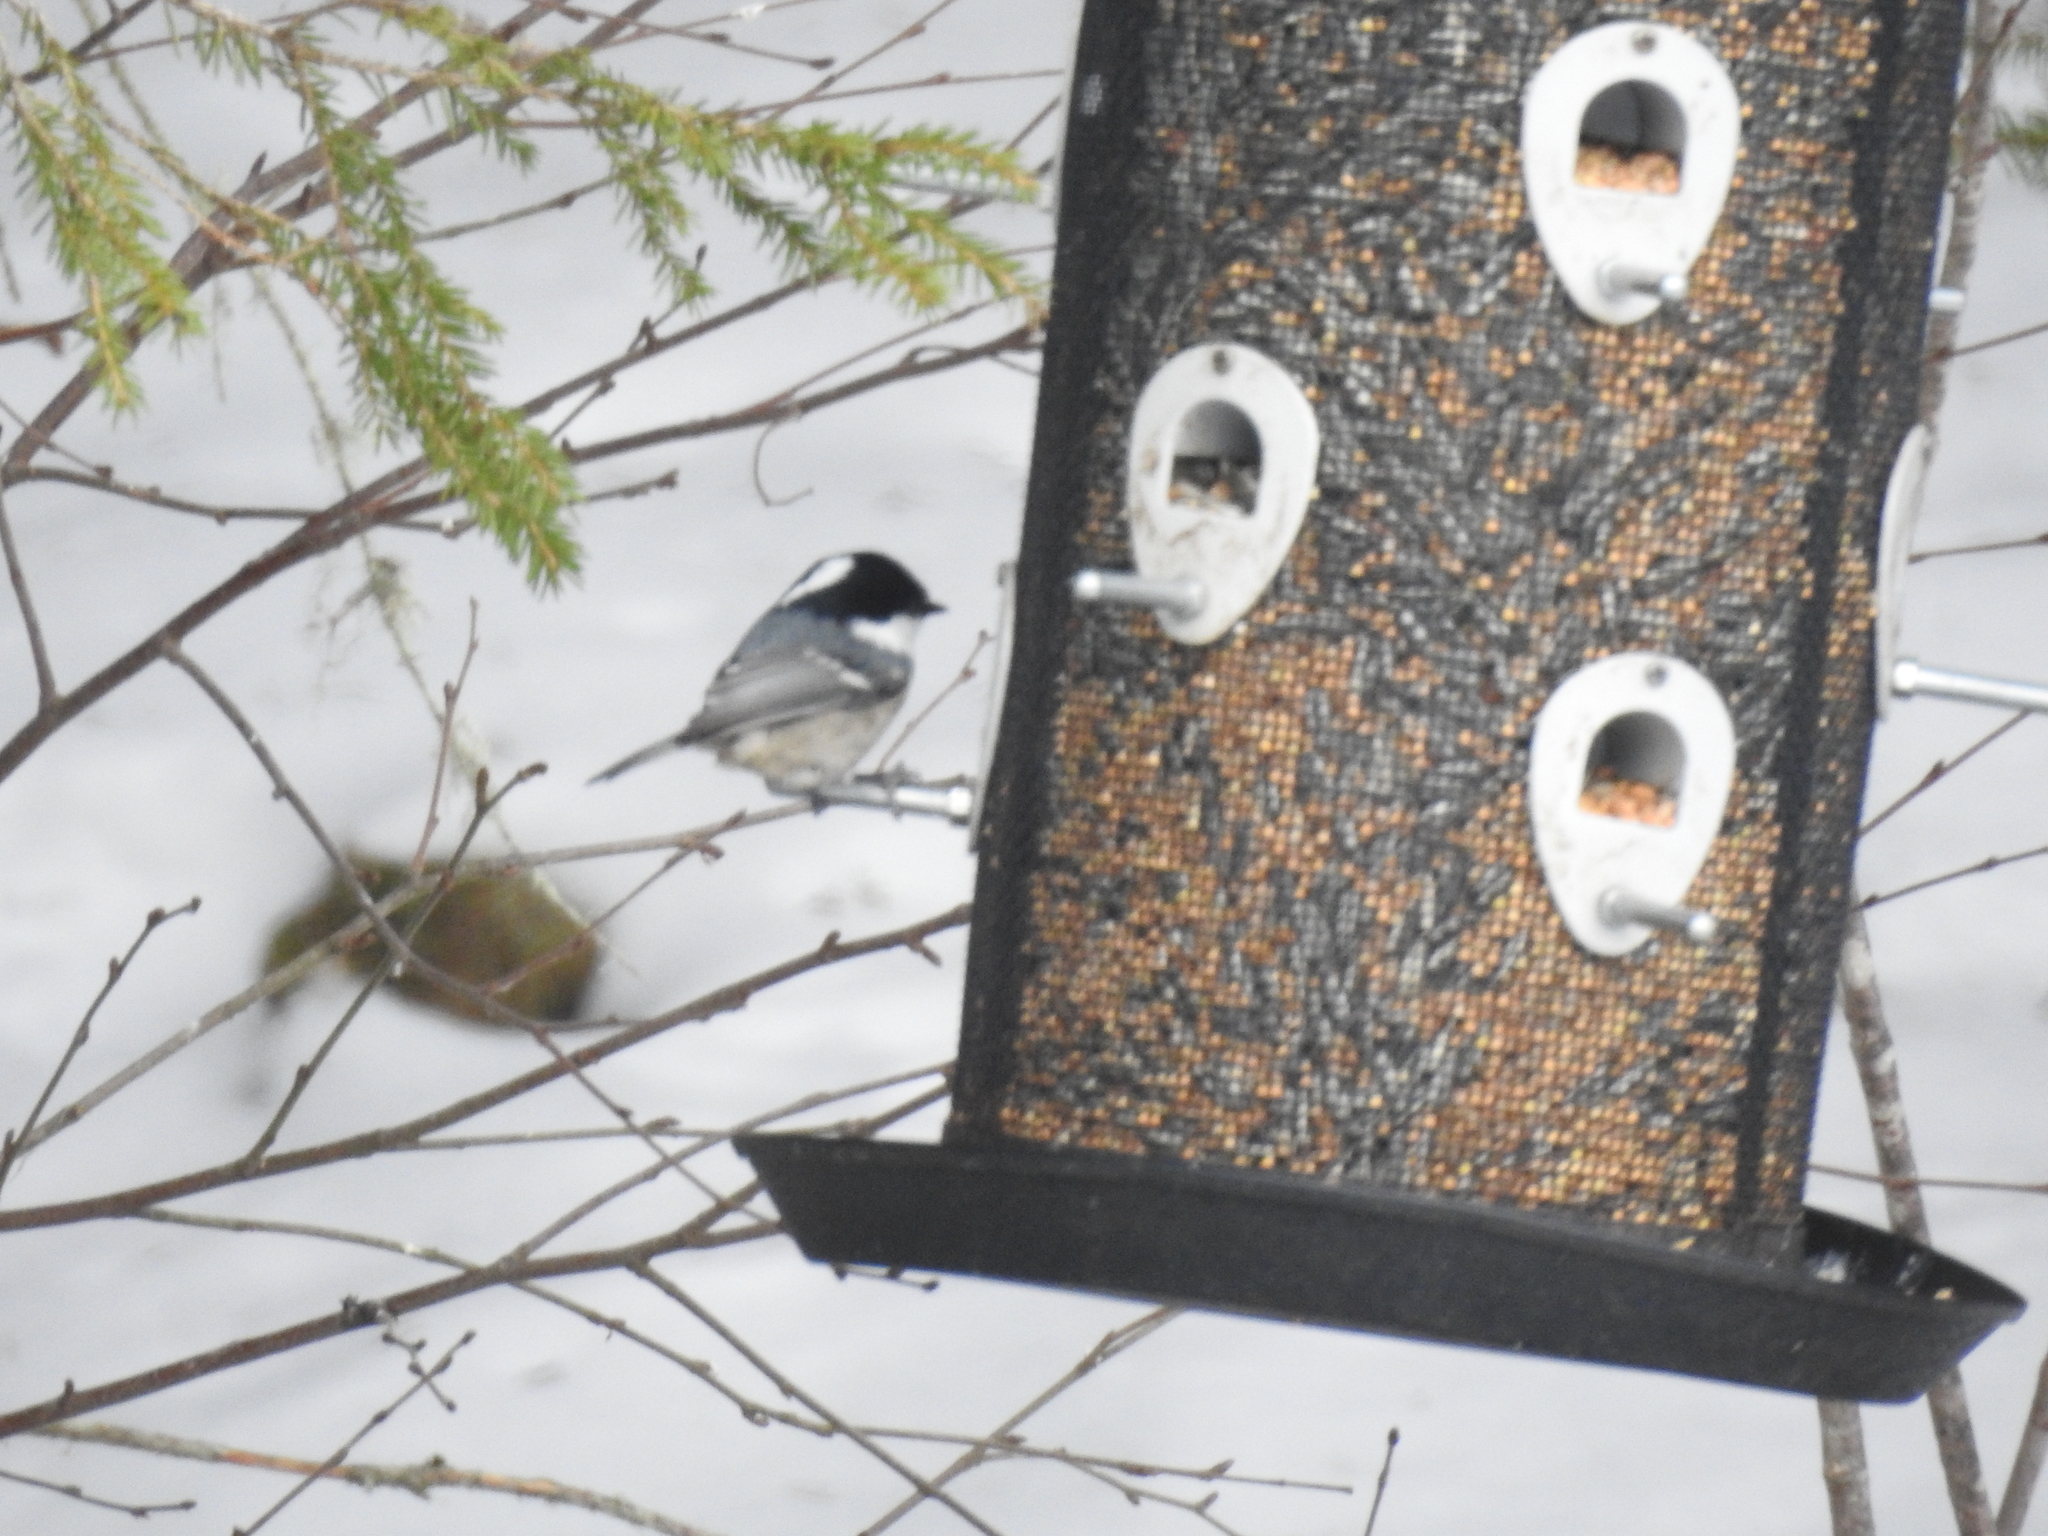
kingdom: Animalia
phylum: Chordata
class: Aves
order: Passeriformes
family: Paridae
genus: Periparus
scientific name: Periparus ater
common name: Coal tit
